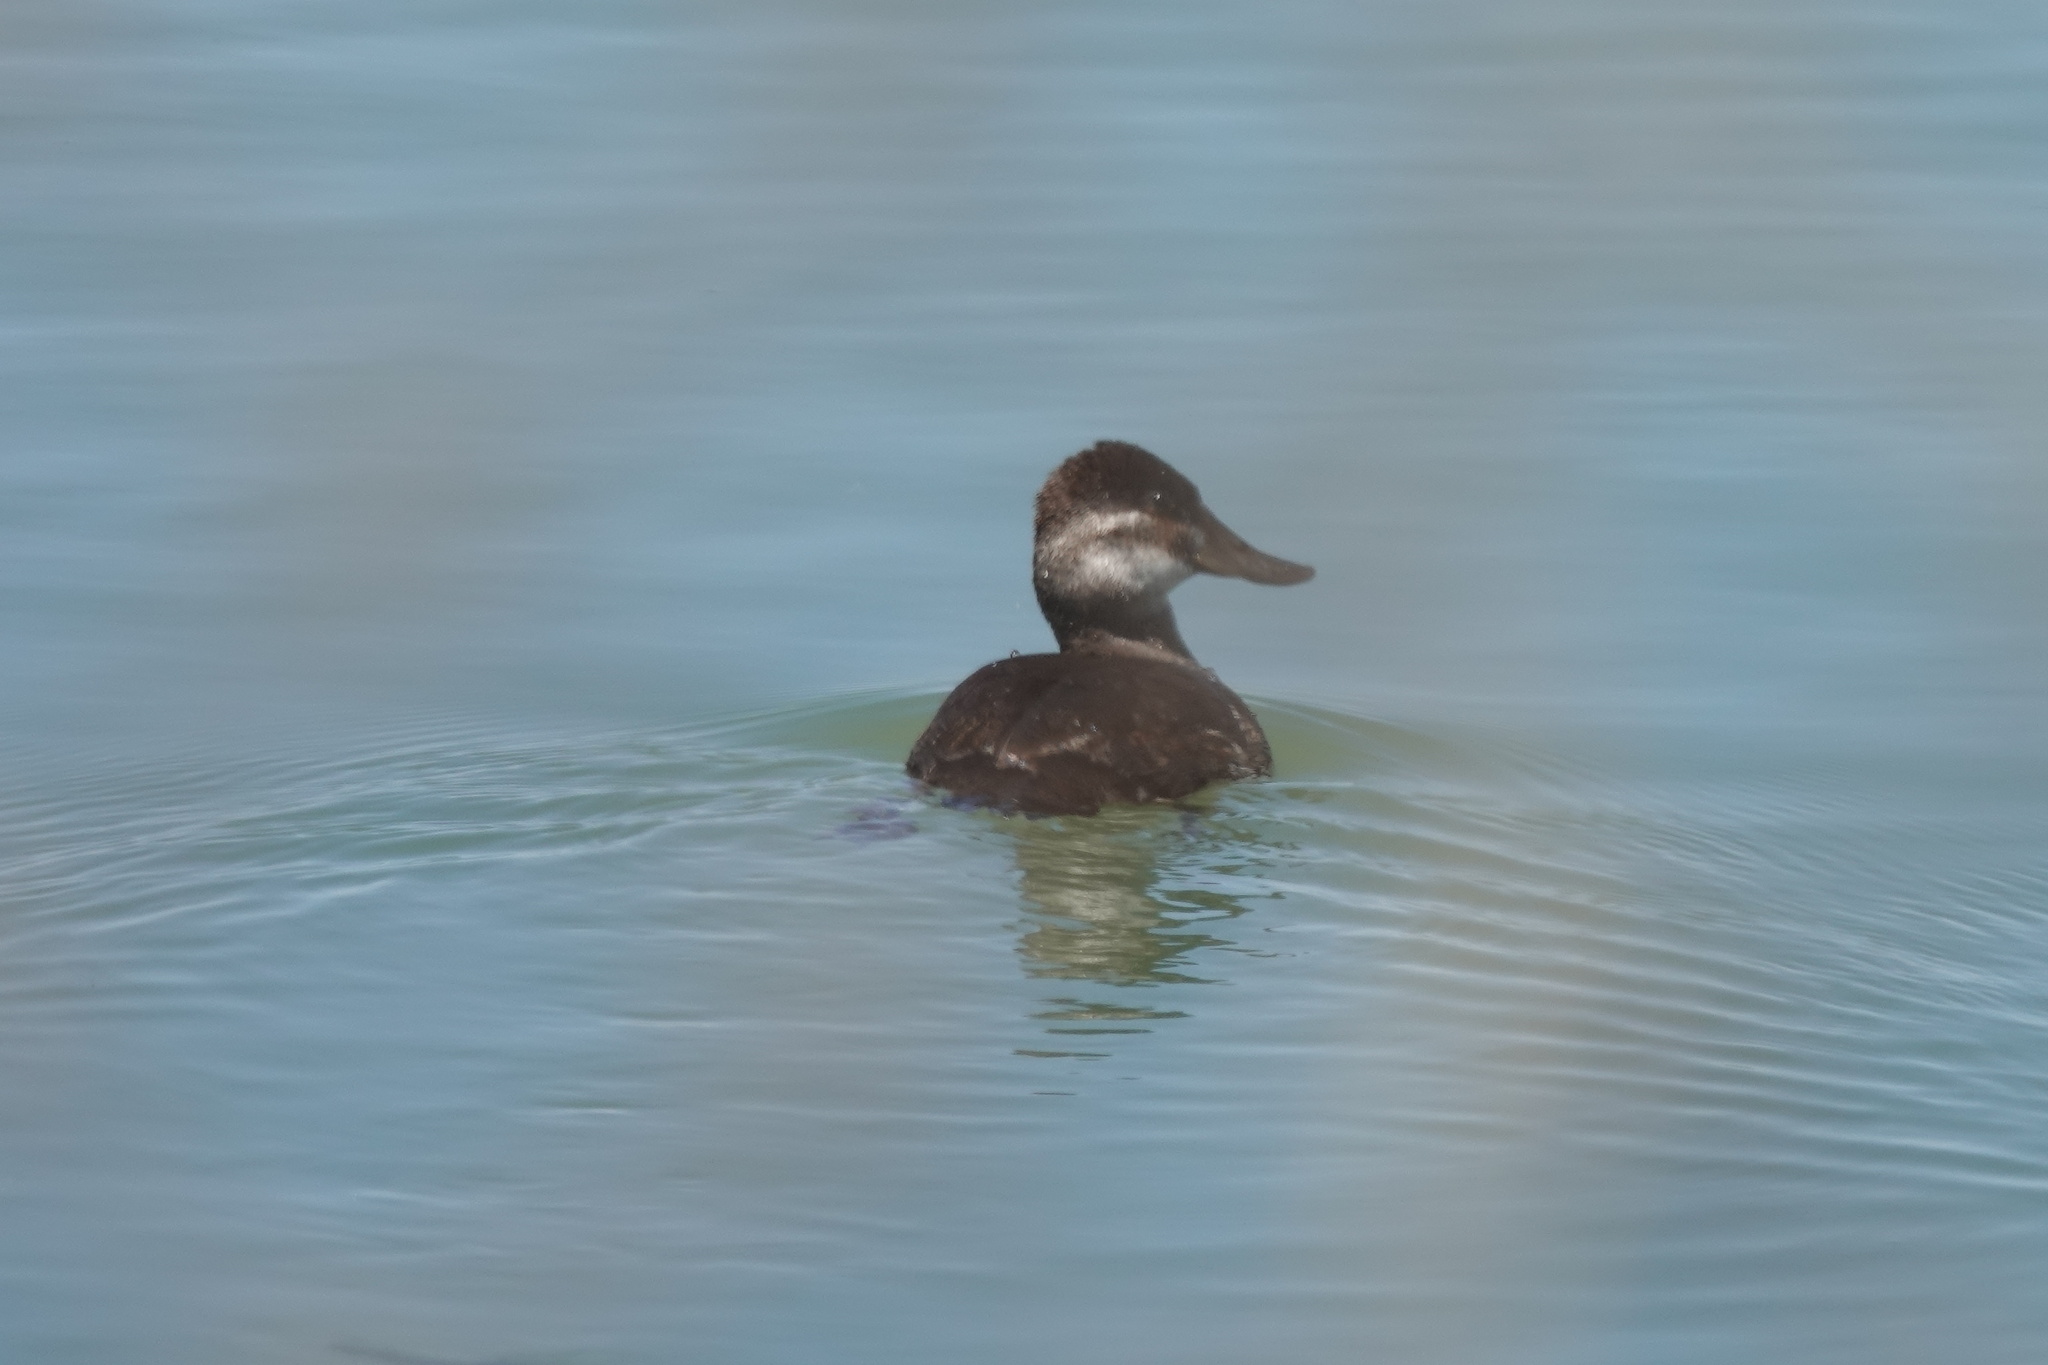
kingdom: Animalia
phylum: Chordata
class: Aves
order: Anseriformes
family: Anatidae
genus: Oxyura
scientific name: Oxyura jamaicensis
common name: Ruddy duck
